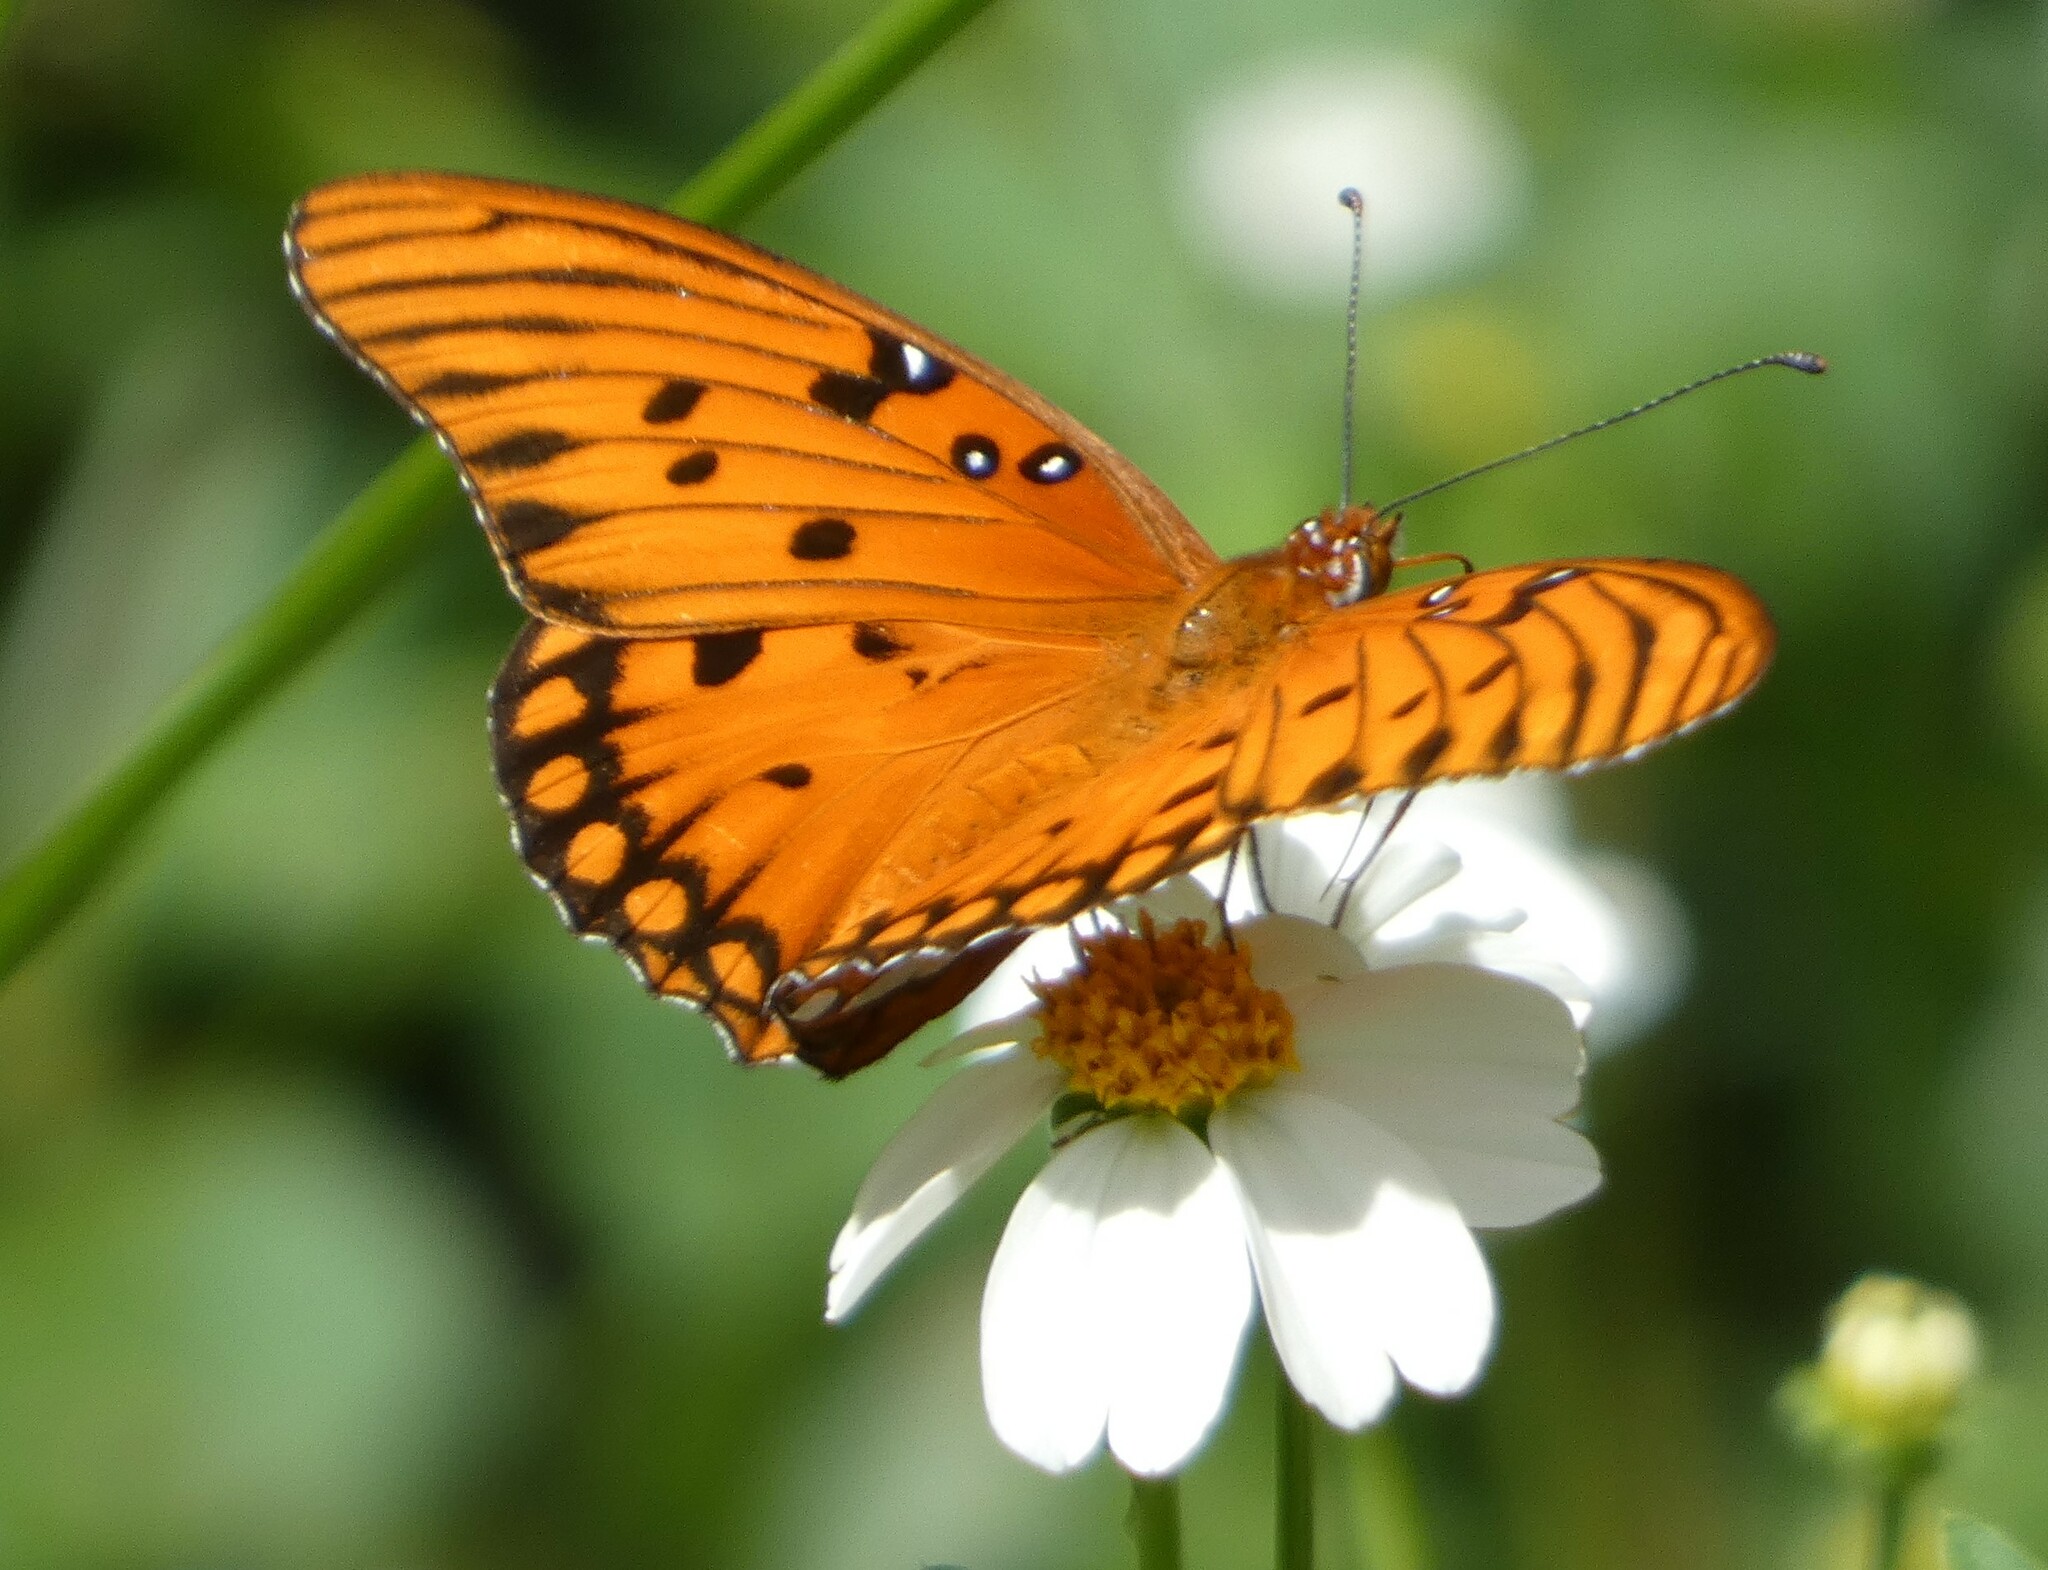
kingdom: Animalia
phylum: Arthropoda
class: Insecta
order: Lepidoptera
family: Nymphalidae
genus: Dione
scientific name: Dione vanillae
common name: Gulf fritillary
